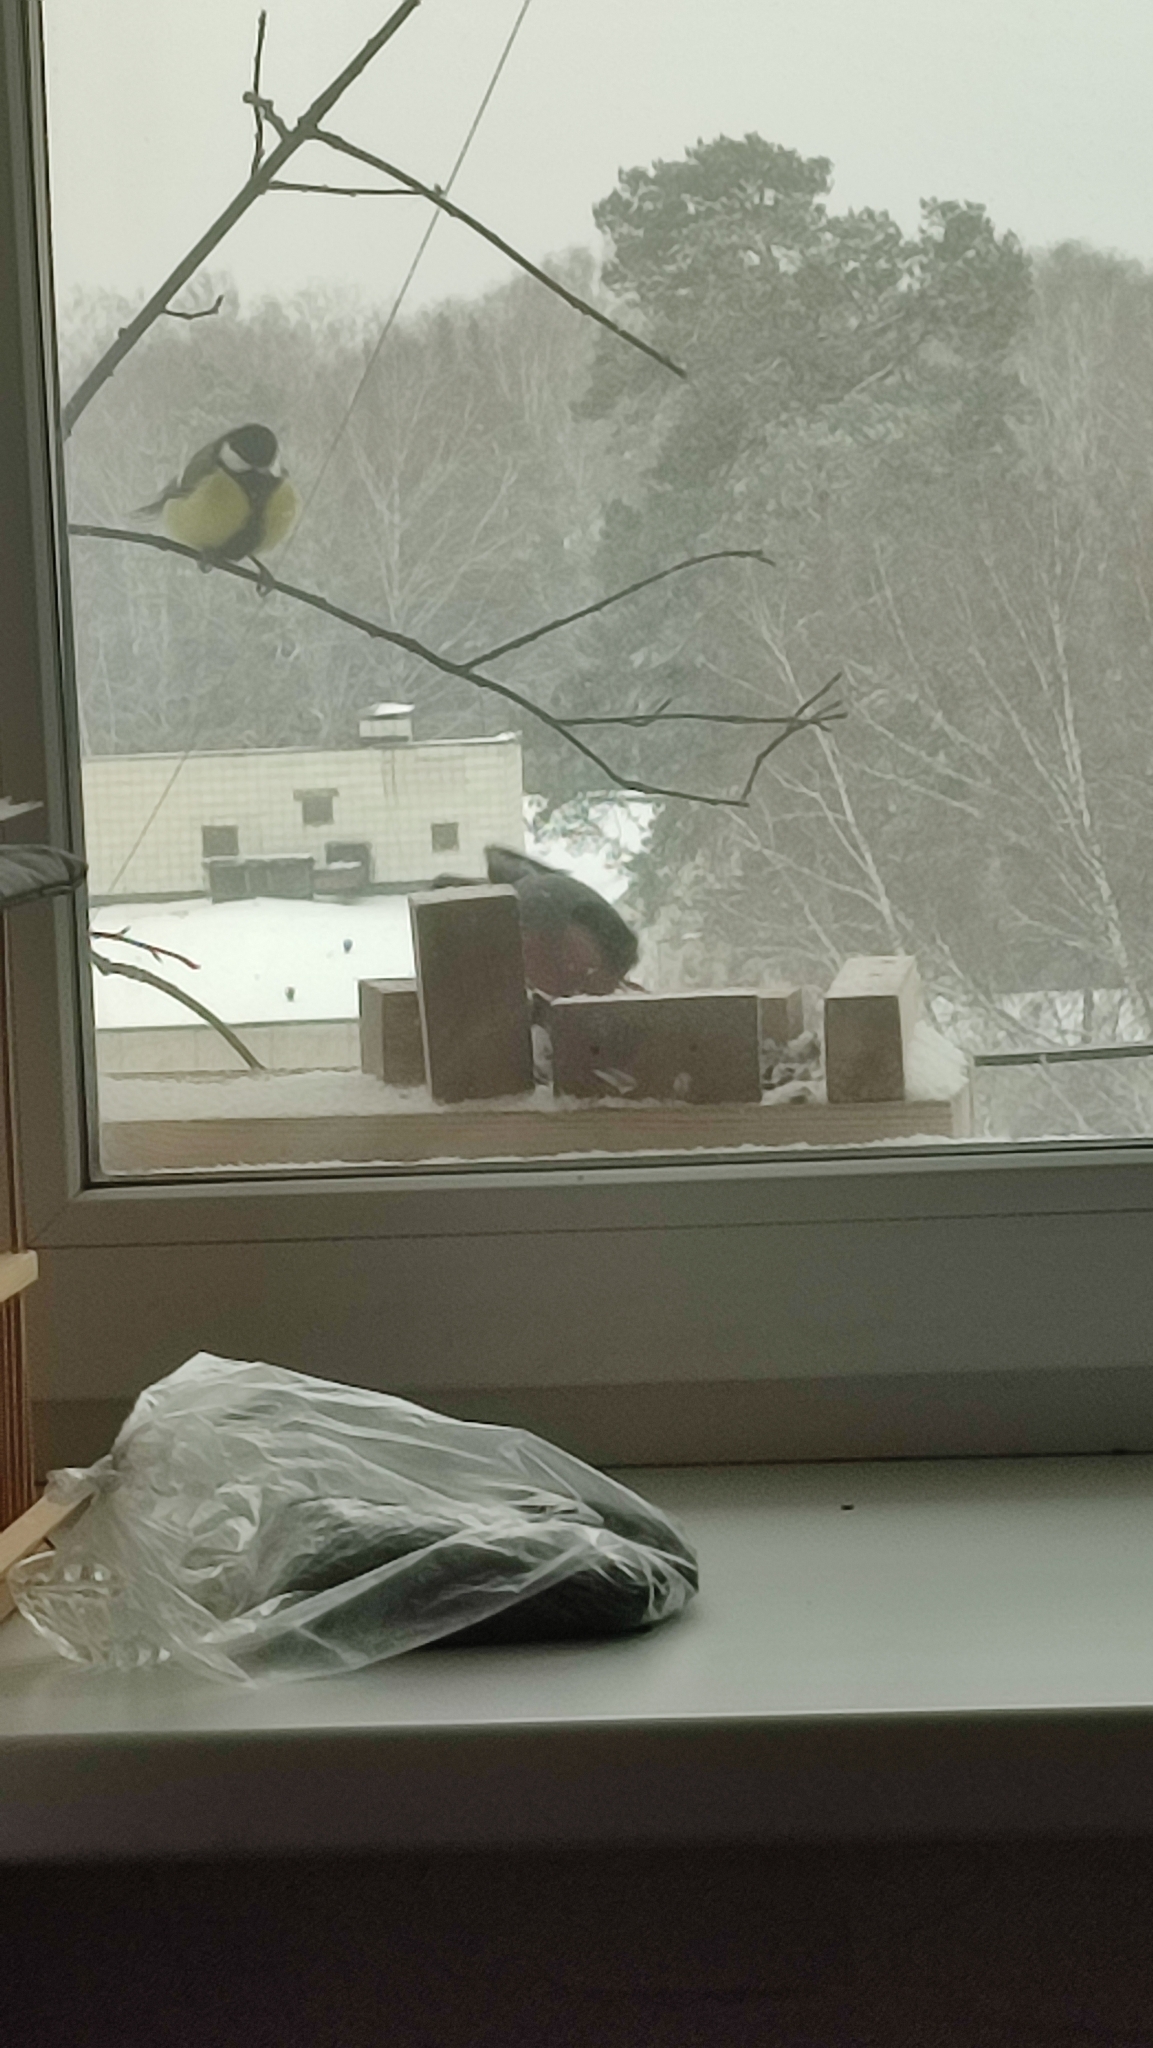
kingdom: Animalia
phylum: Chordata
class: Aves
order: Passeriformes
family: Paridae
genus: Parus
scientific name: Parus major
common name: Great tit
